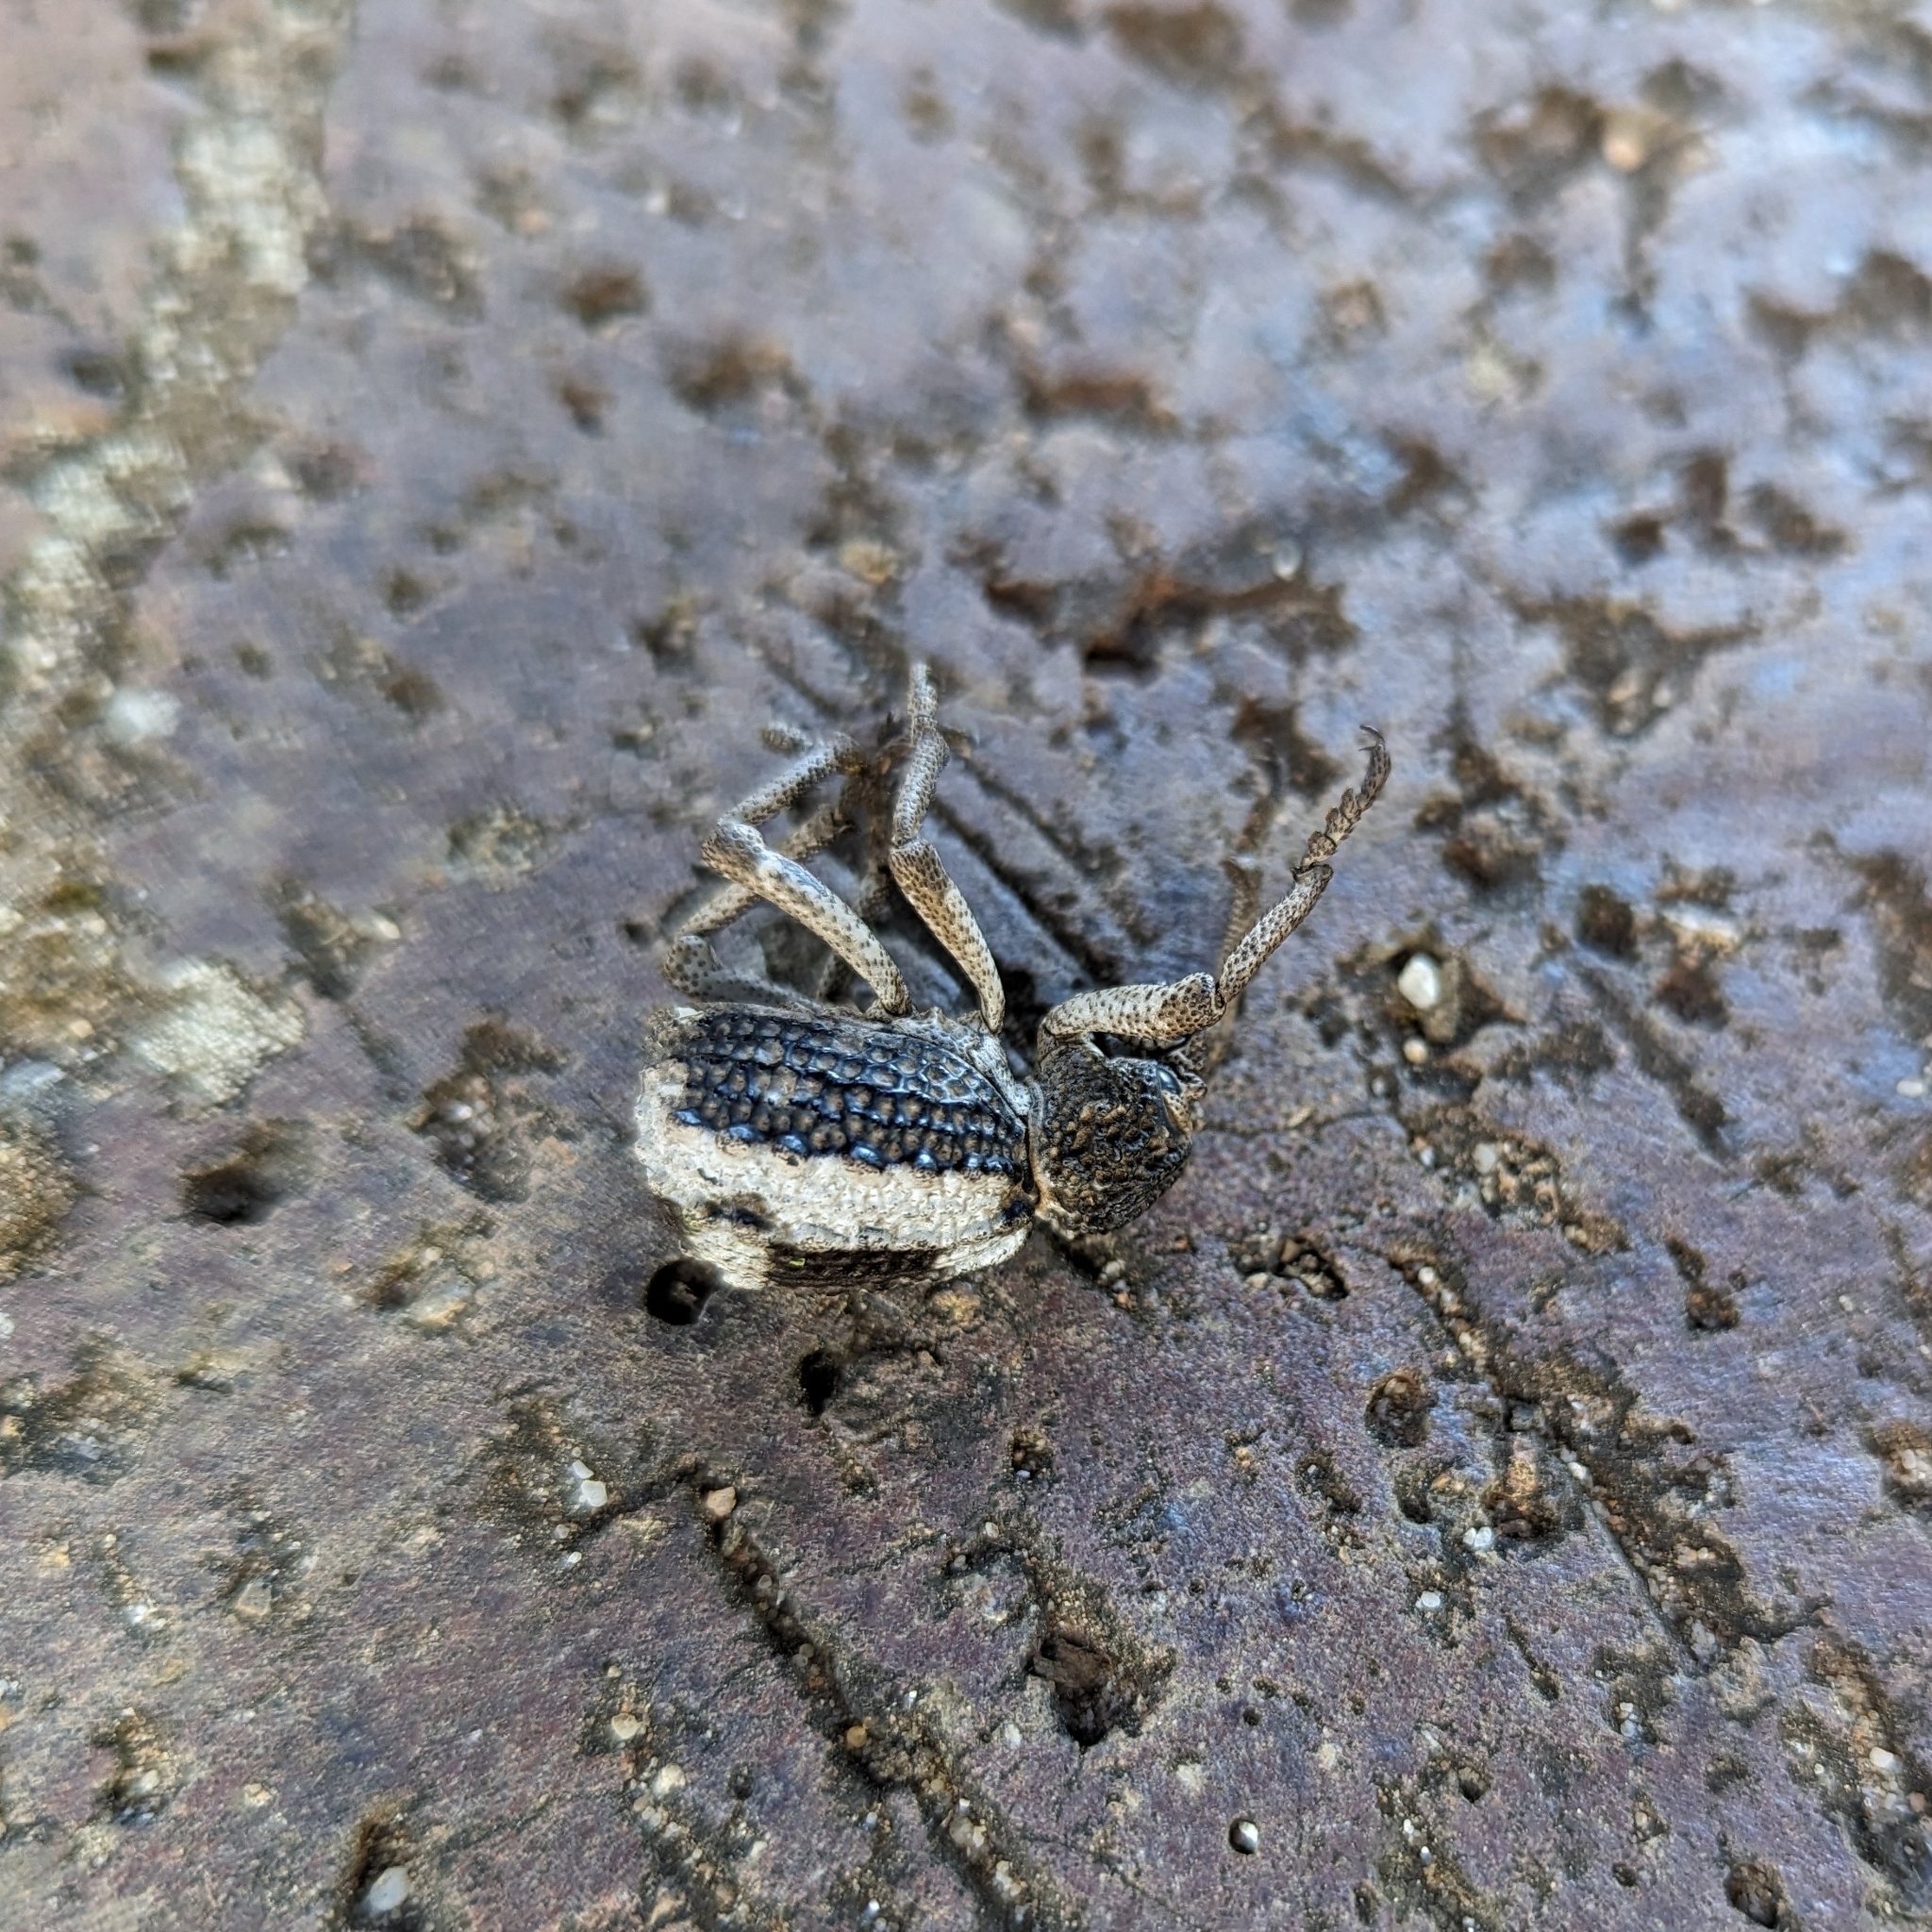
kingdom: Animalia
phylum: Arthropoda
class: Insecta
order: Coleoptera
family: Brachyceridae
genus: Brachycerus
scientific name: Brachycerus tauriculus
